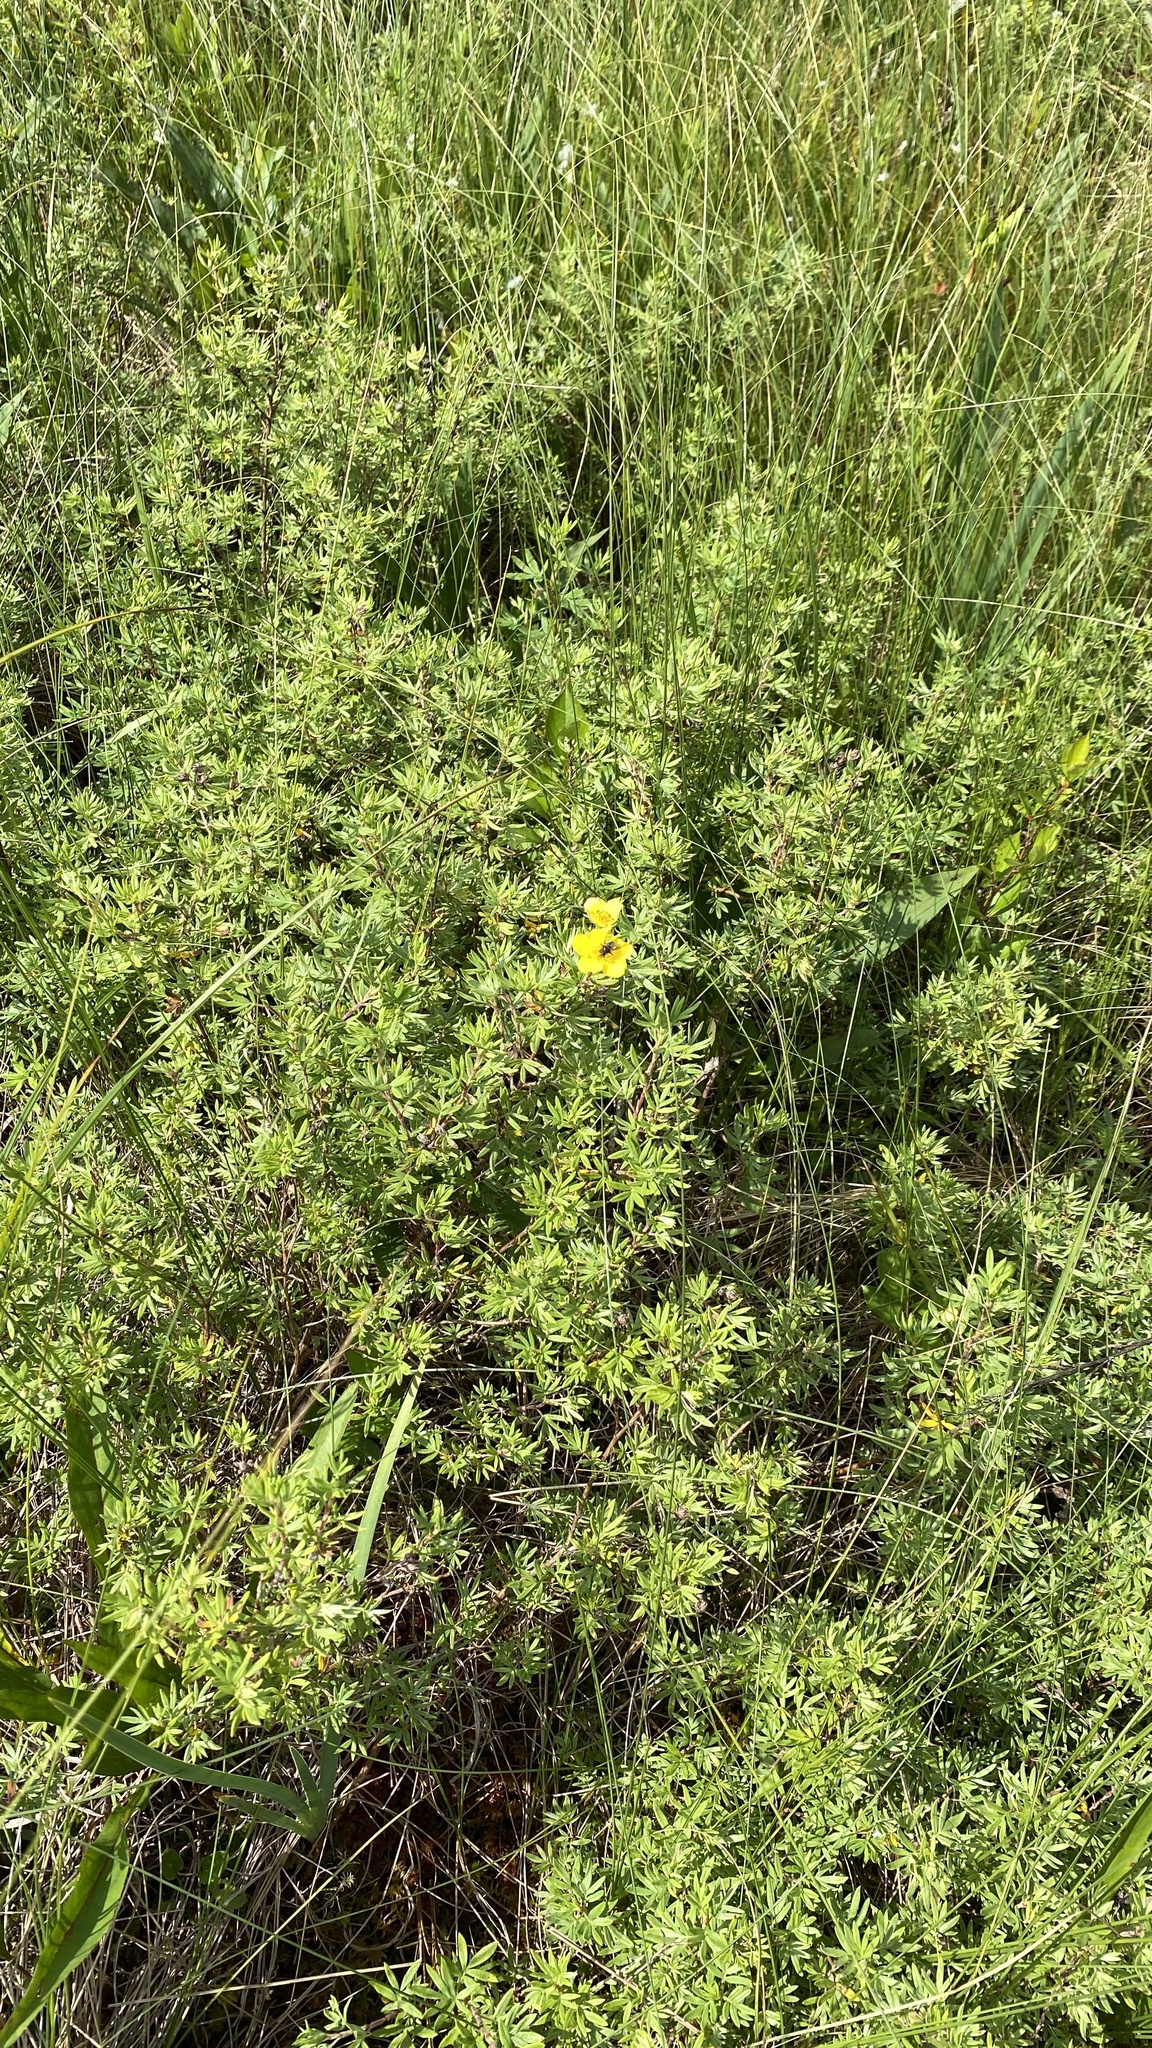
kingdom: Plantae
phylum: Tracheophyta
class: Magnoliopsida
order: Rosales
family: Rosaceae
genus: Dasiphora
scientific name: Dasiphora fruticosa
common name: Shrubby cinquefoil
